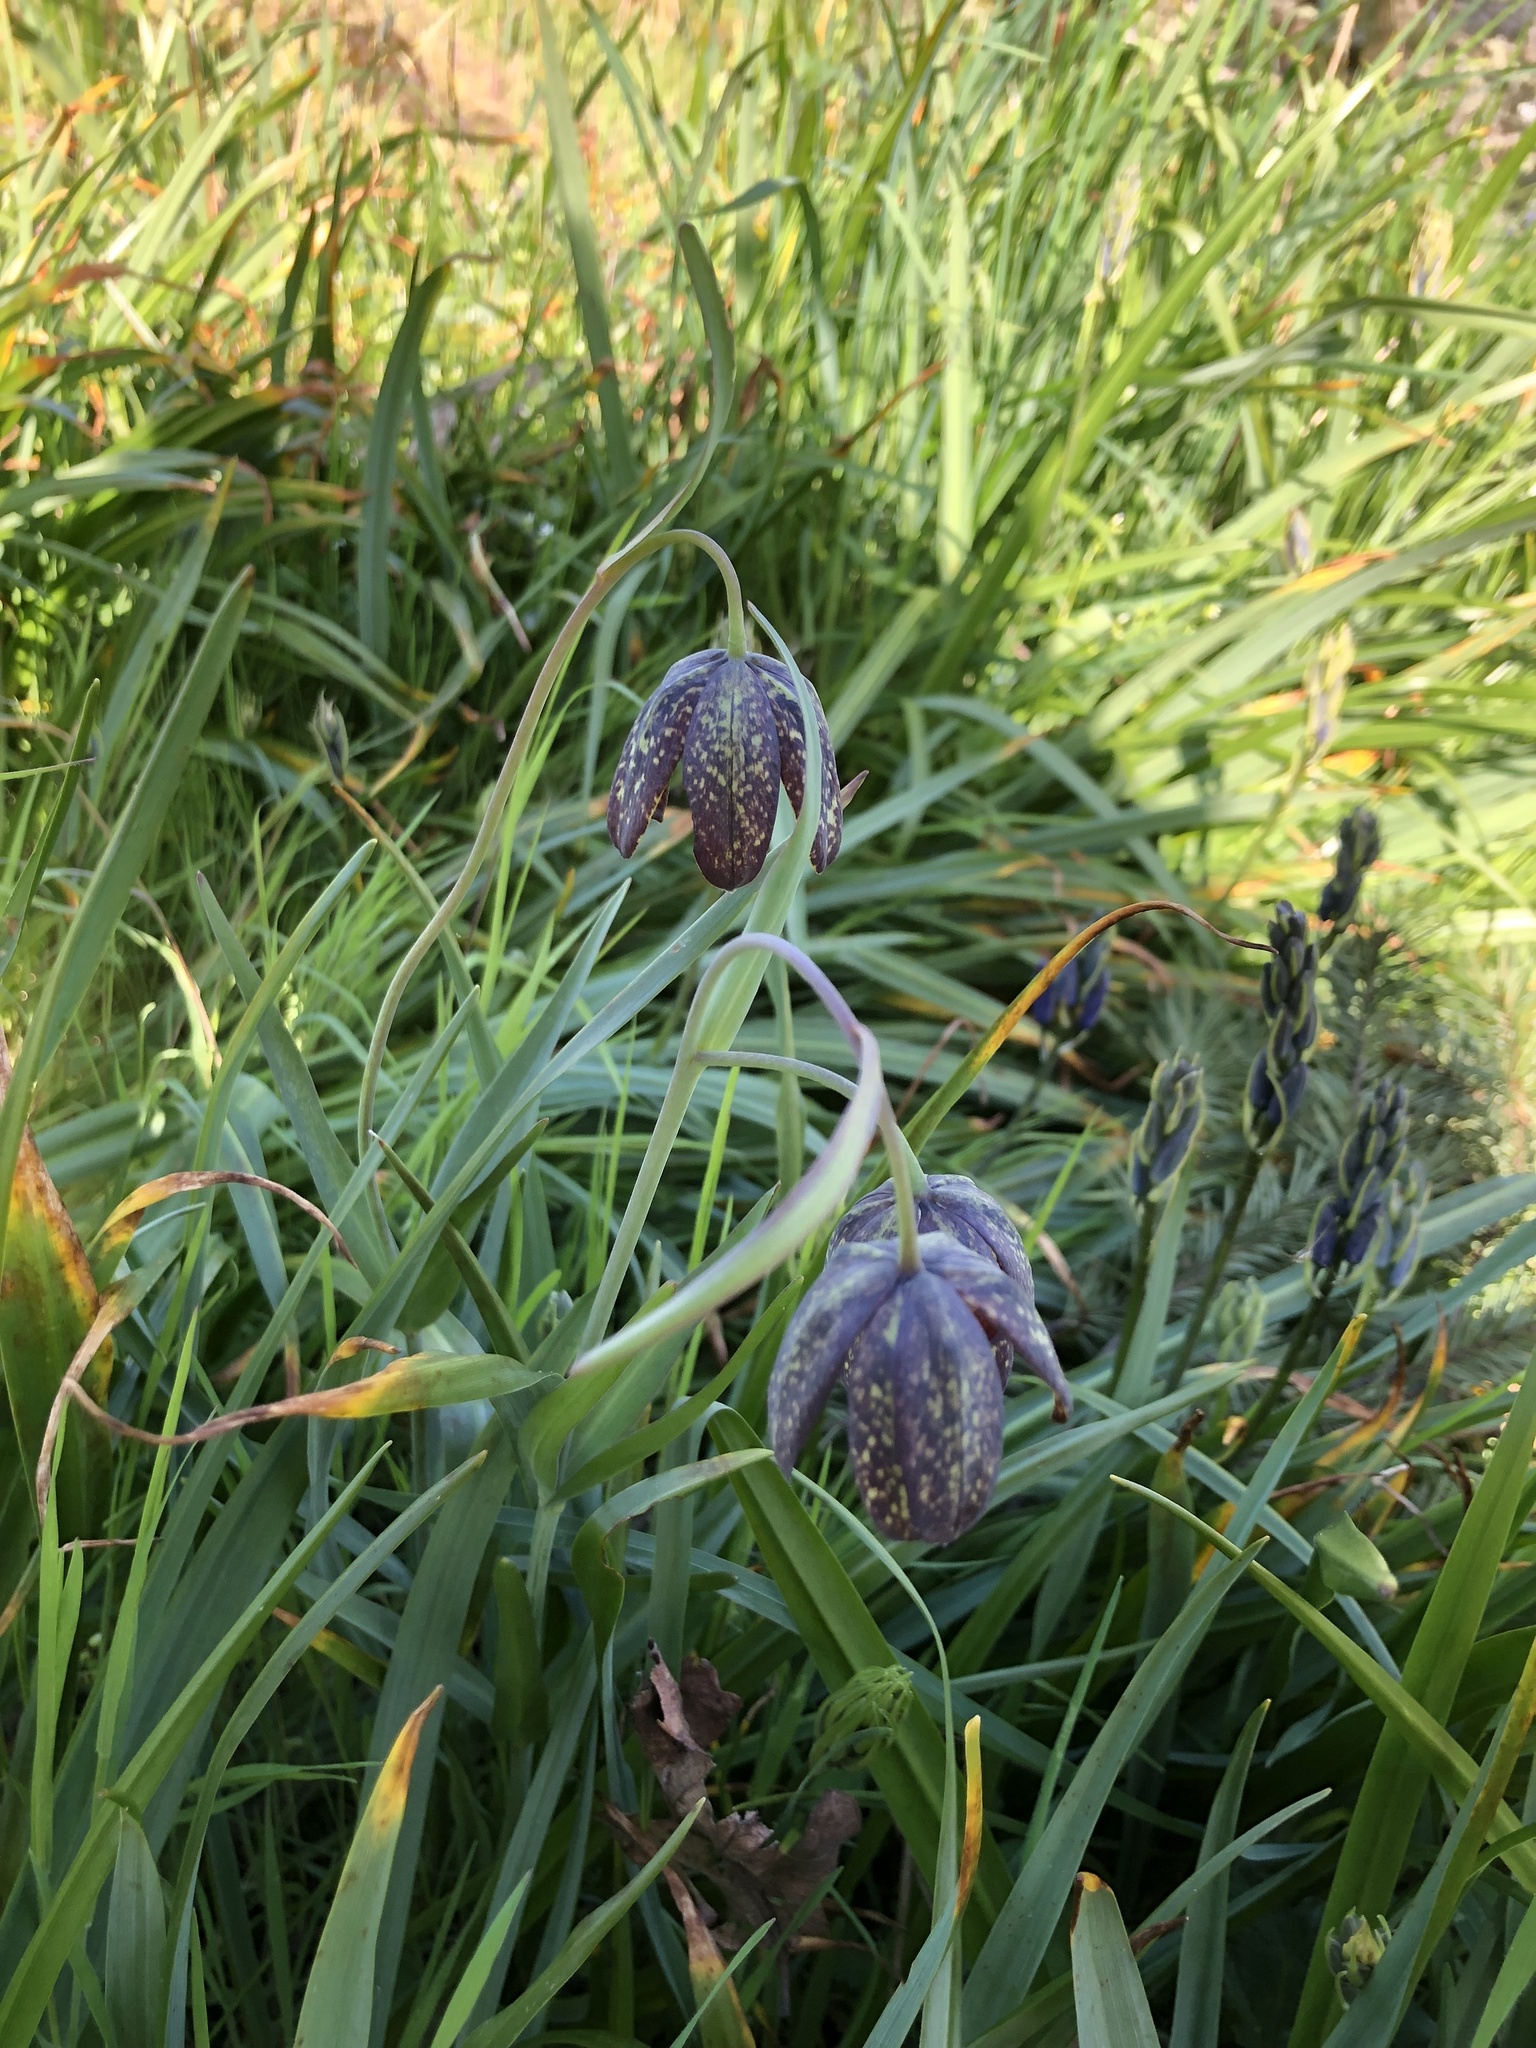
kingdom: Plantae
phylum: Tracheophyta
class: Liliopsida
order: Liliales
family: Liliaceae
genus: Fritillaria
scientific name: Fritillaria affinis
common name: Ojai fritillary
